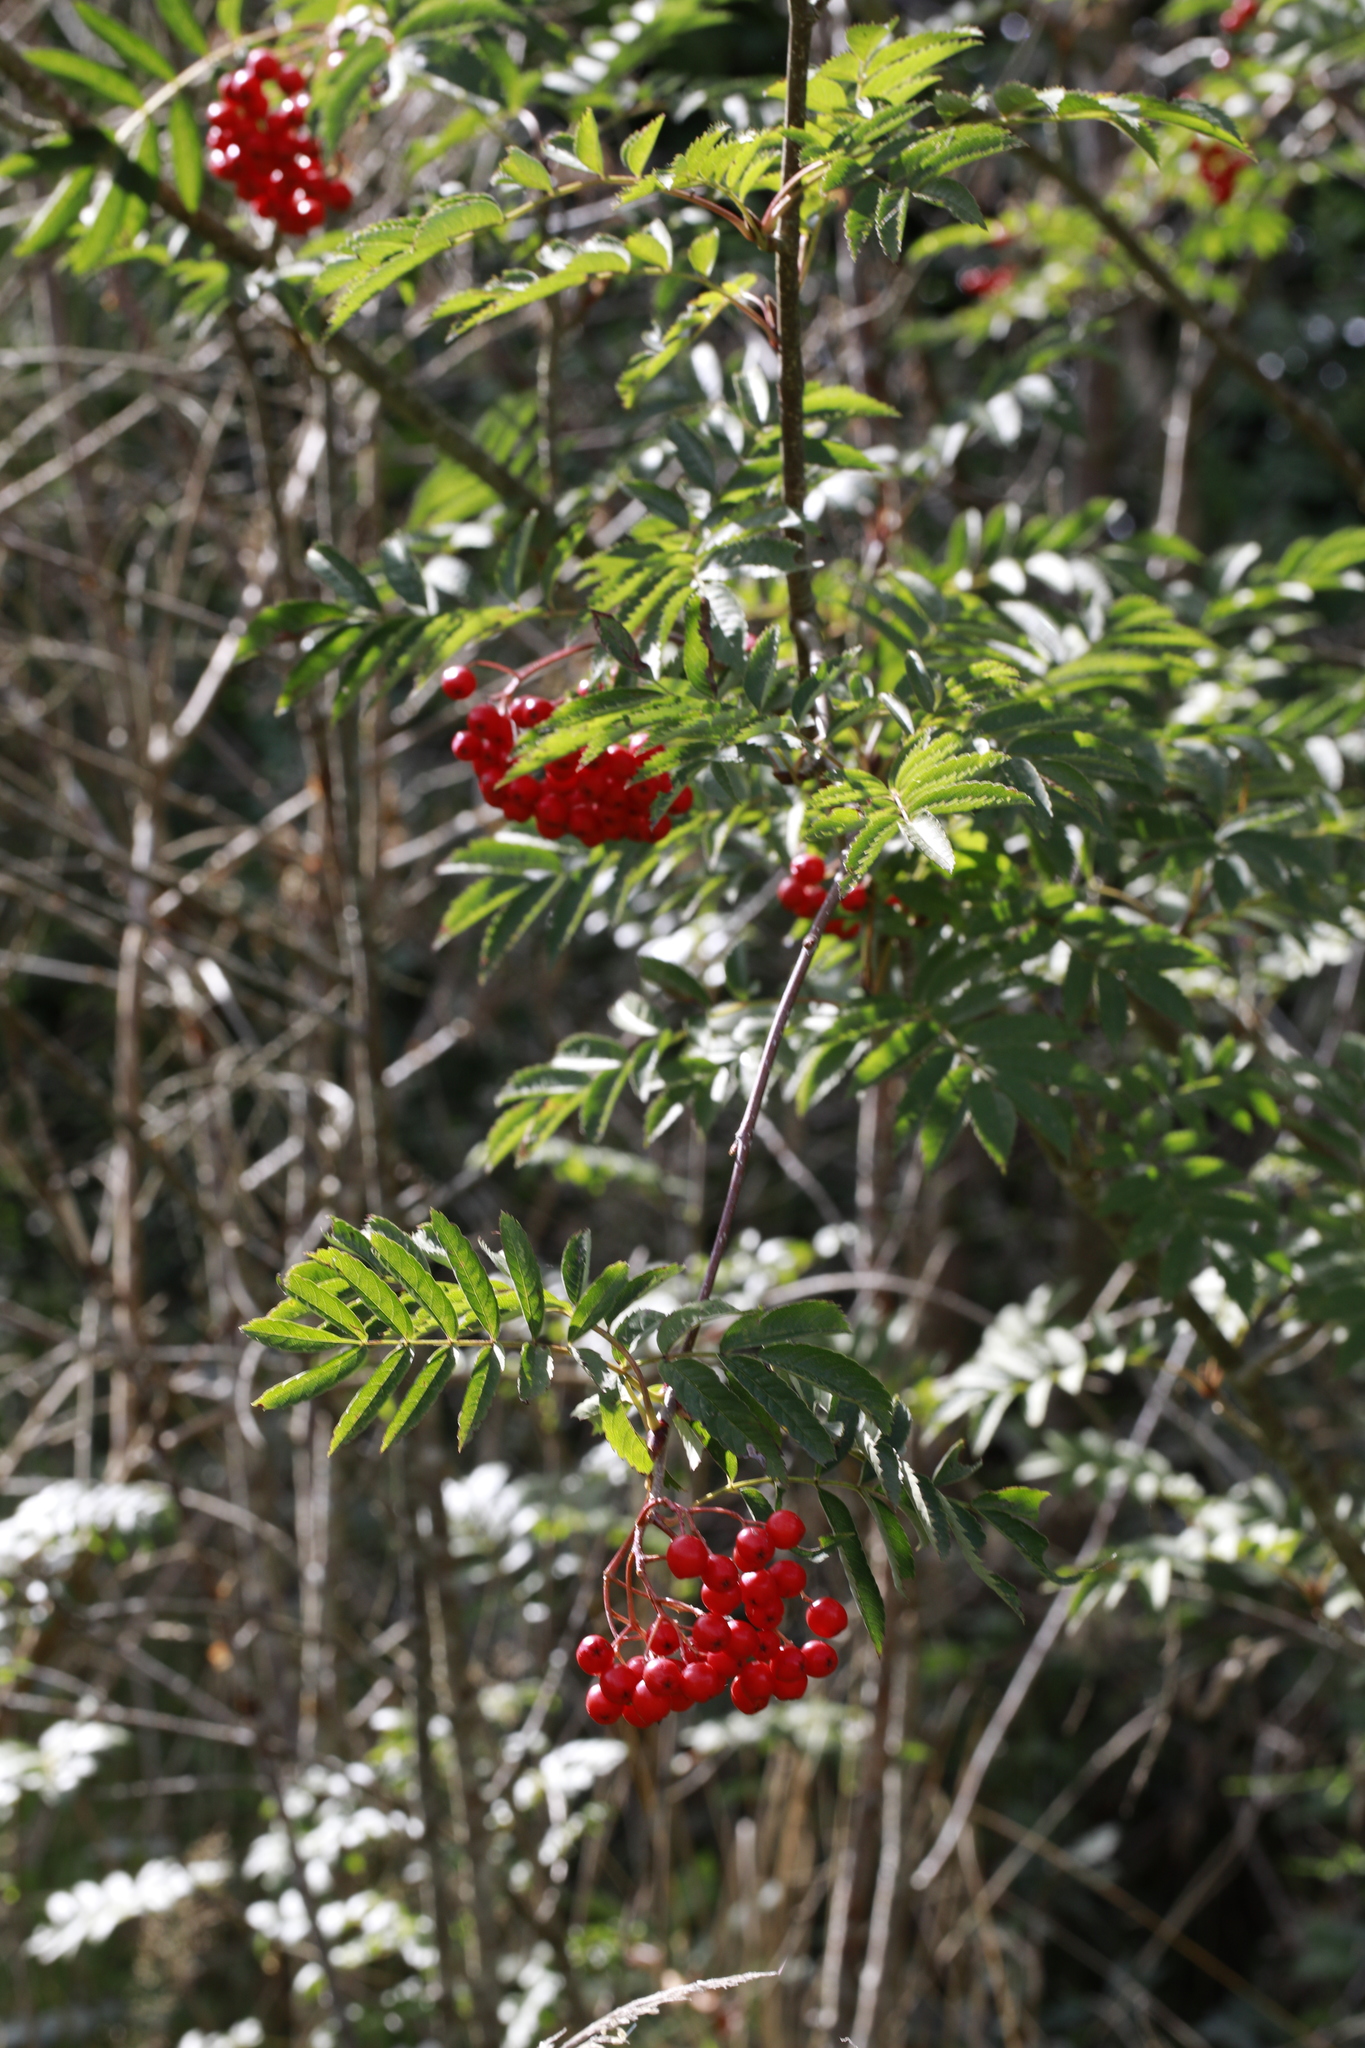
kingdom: Plantae
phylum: Tracheophyta
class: Magnoliopsida
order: Rosales
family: Rosaceae
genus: Sorbus
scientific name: Sorbus aucuparia
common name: Rowan
